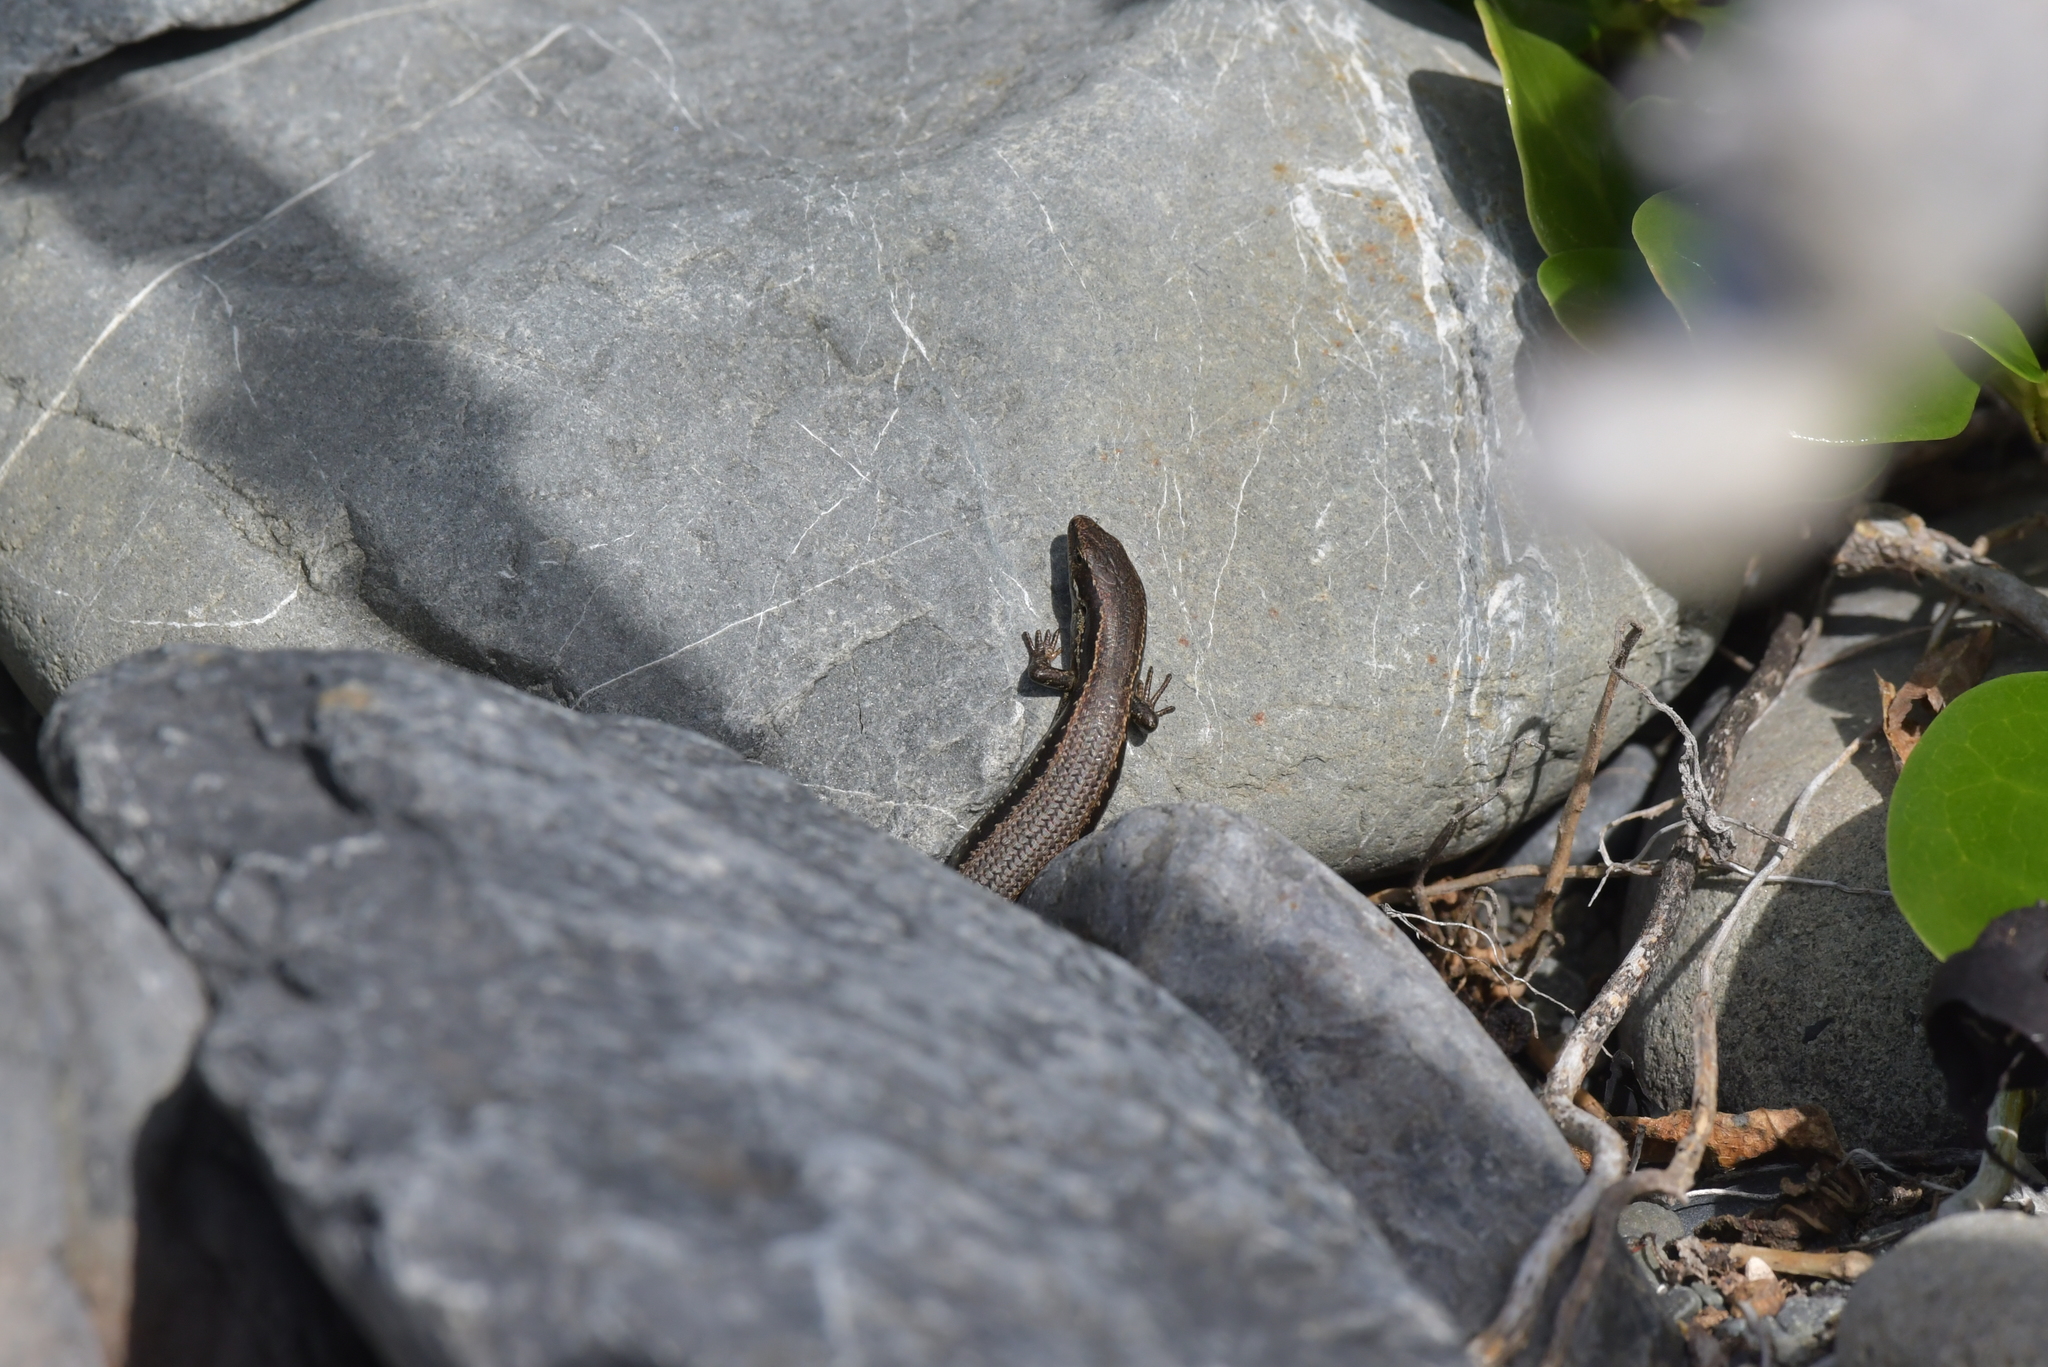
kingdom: Animalia
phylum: Chordata
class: Squamata
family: Scincidae
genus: Oligosoma
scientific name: Oligosoma polychroma
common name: Common new zealand skink
